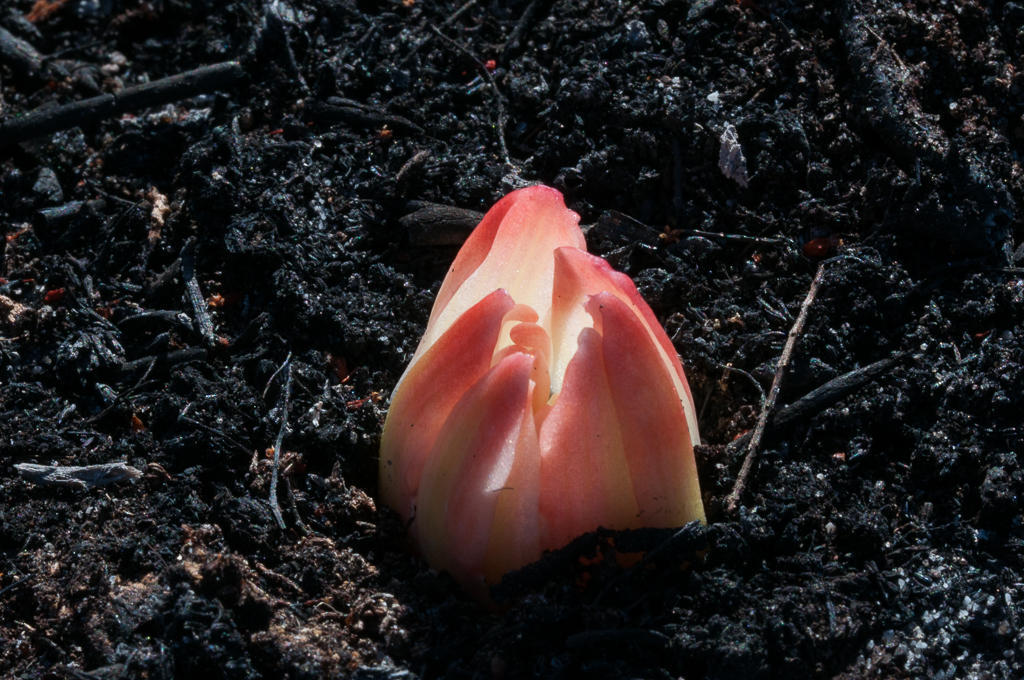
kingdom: Plantae
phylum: Tracheophyta
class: Liliopsida
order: Asparagales
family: Amaryllidaceae
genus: Haemanthus
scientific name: Haemanthus canaliculatus
